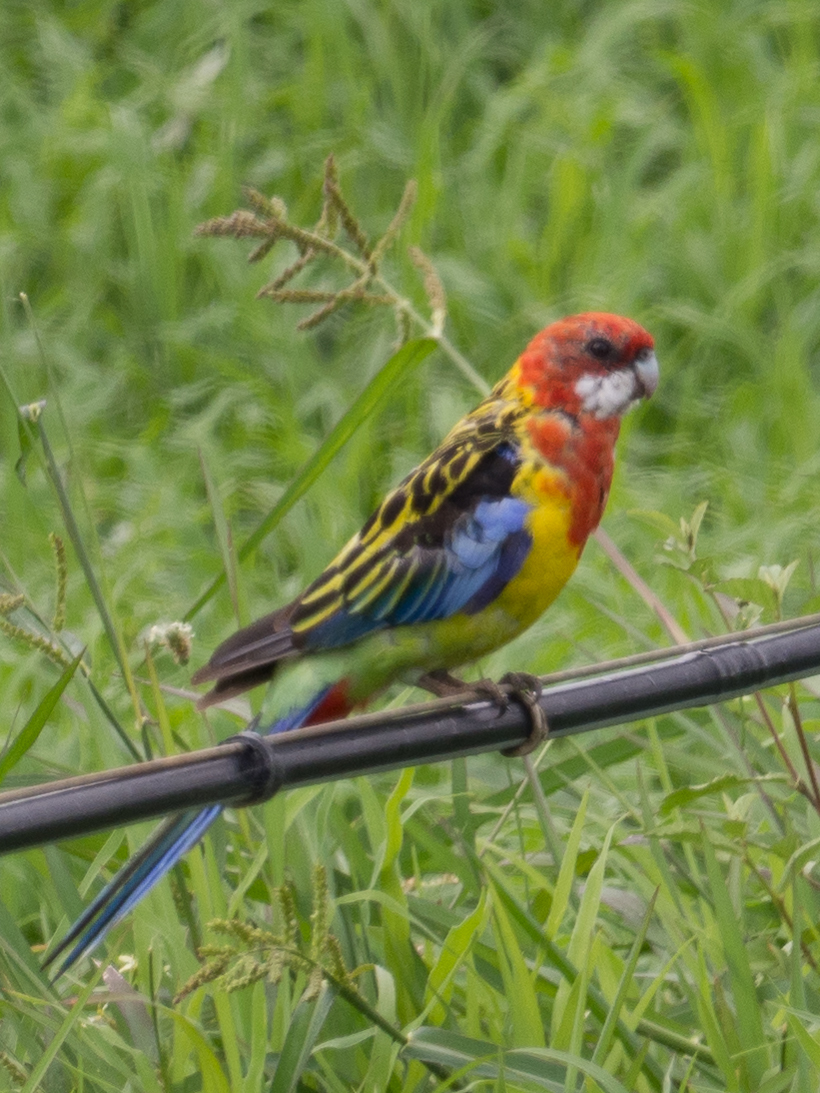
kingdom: Animalia
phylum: Chordata
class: Aves
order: Psittaciformes
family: Psittacidae
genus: Platycercus
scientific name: Platycercus eximius
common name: Eastern rosella
